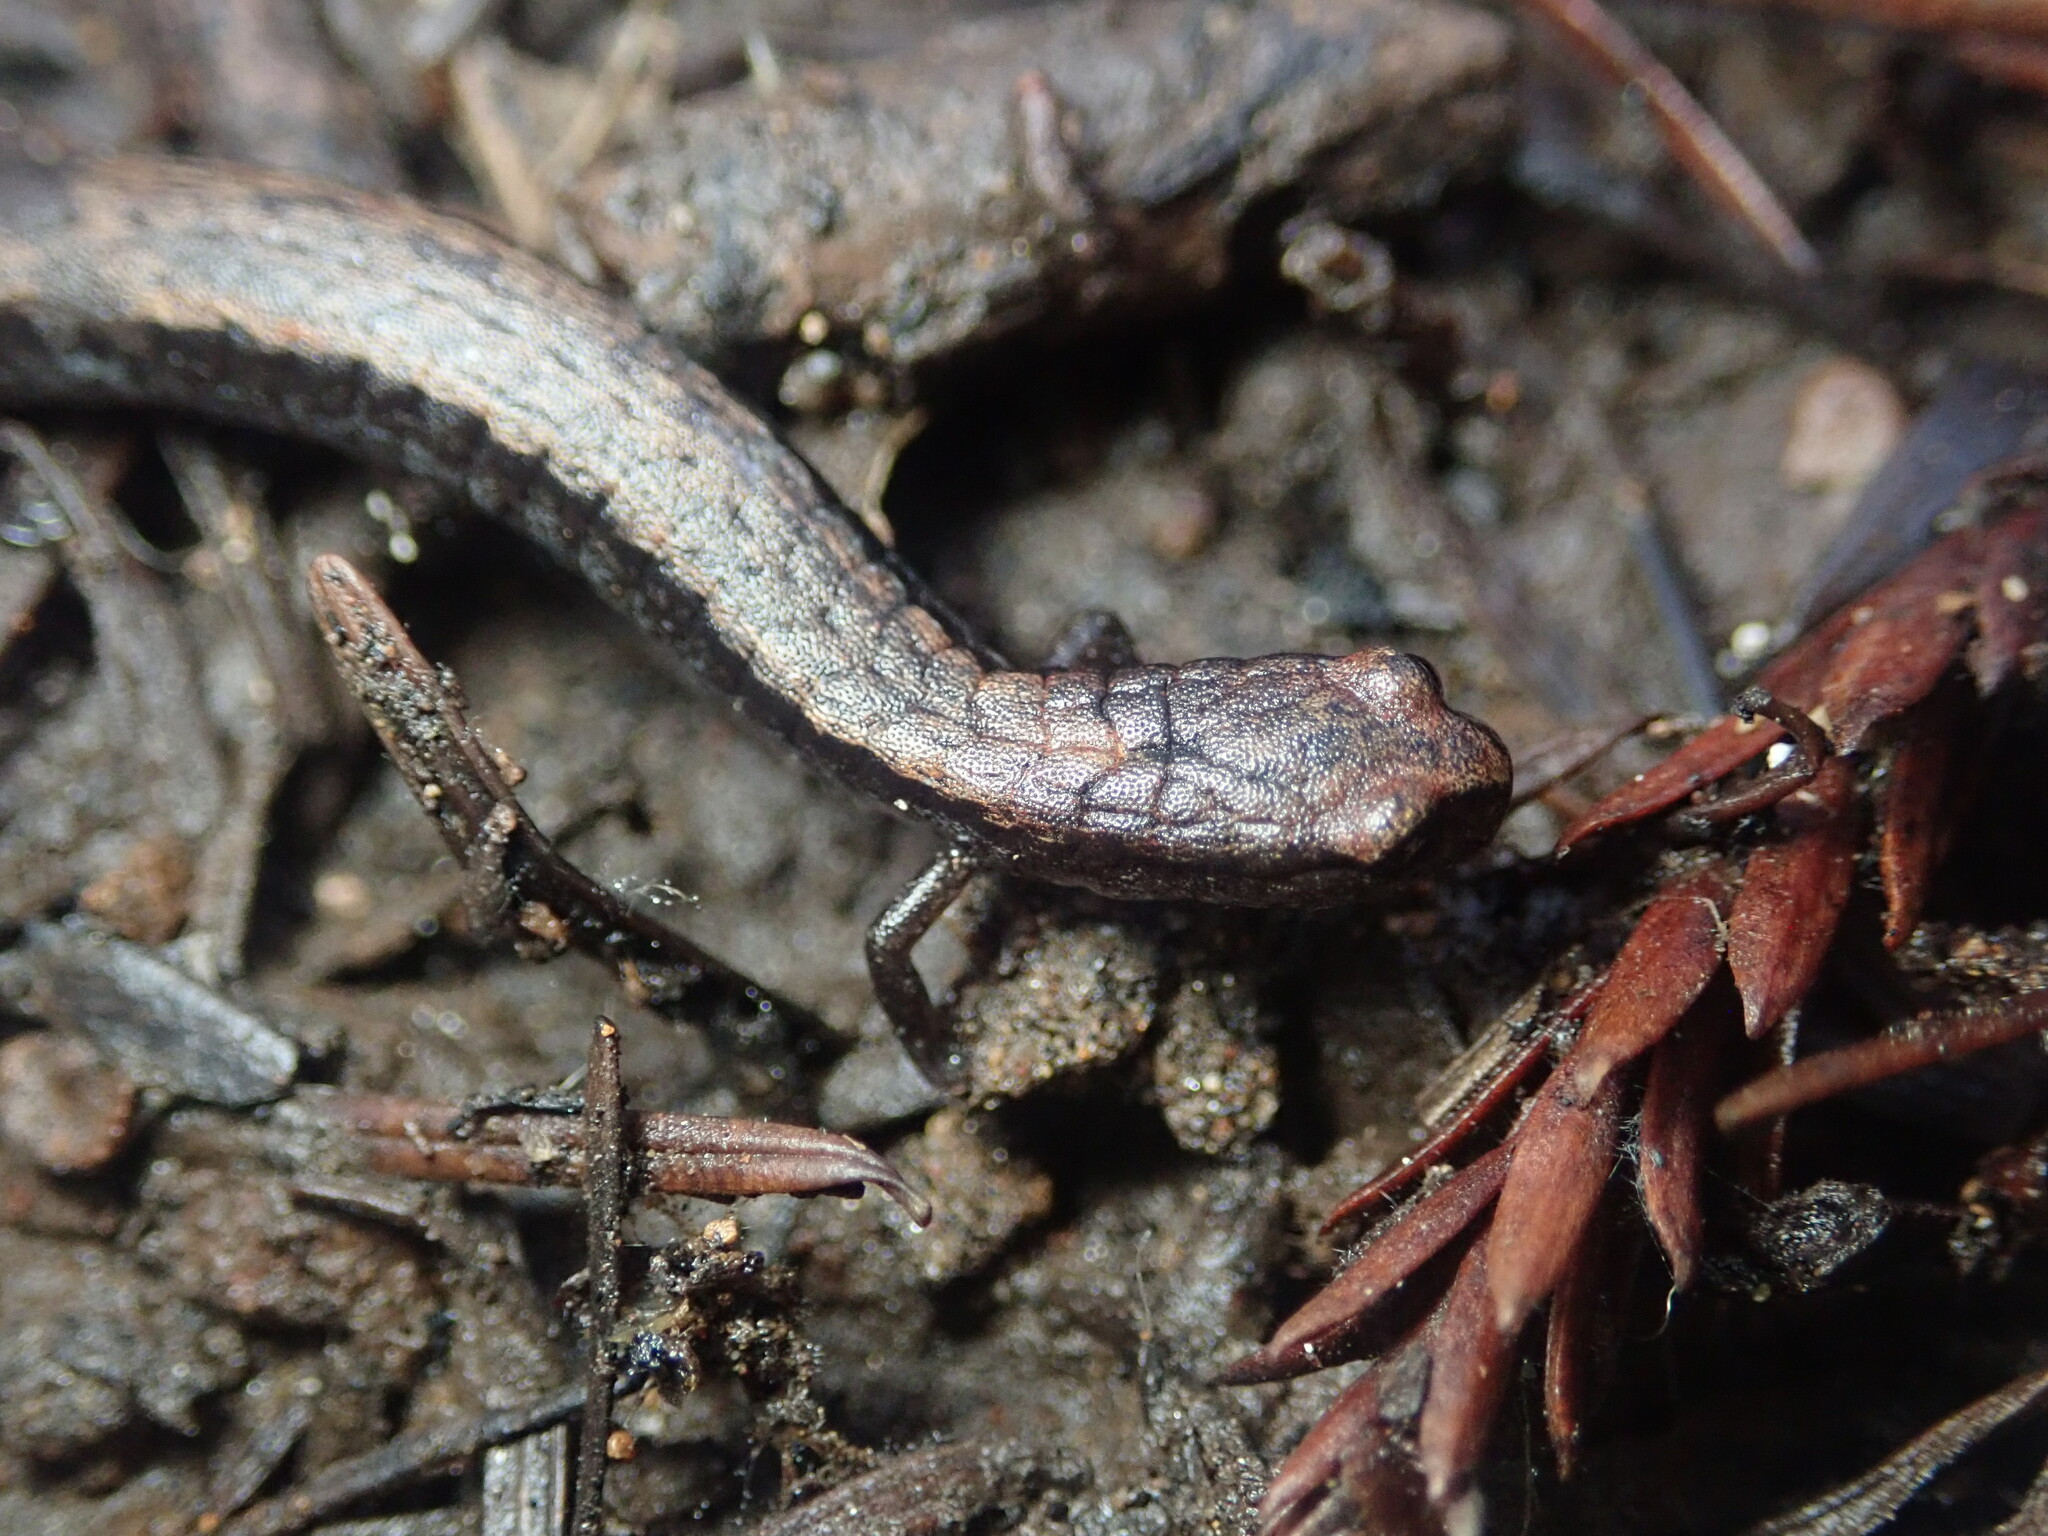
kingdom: Animalia
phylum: Chordata
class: Amphibia
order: Caudata
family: Plethodontidae
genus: Batrachoseps
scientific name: Batrachoseps attenuatus
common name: California slender salamander
